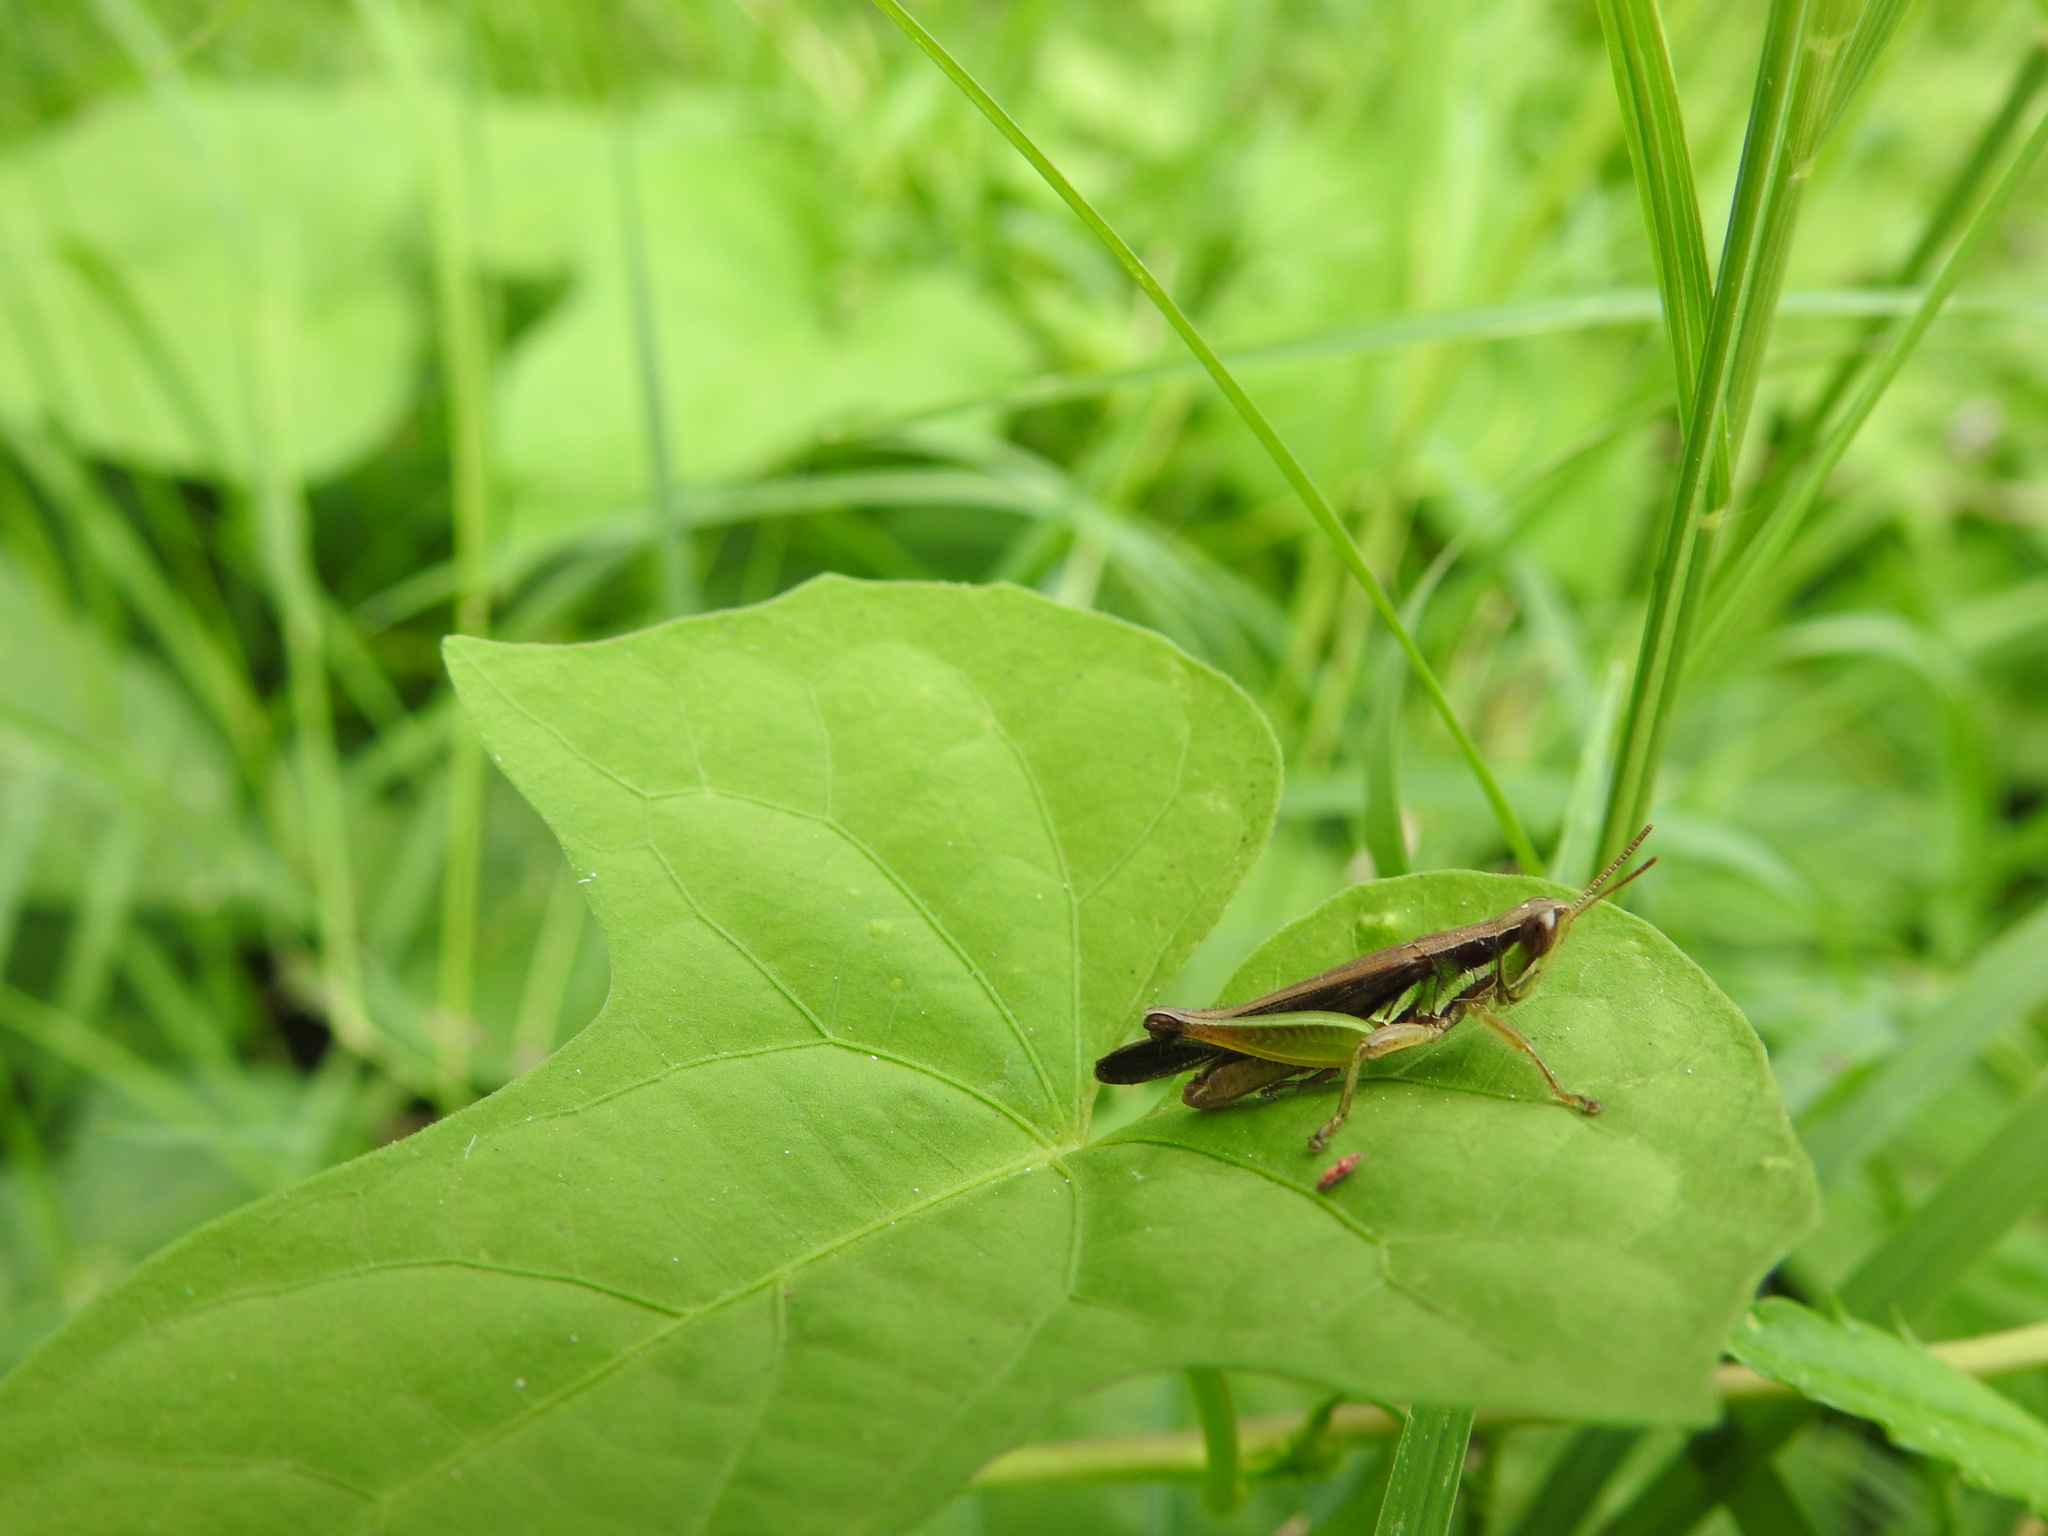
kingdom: Animalia
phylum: Arthropoda
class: Insecta
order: Orthoptera
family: Acrididae
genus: Spathosternum
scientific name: Spathosternum prasiniferum
